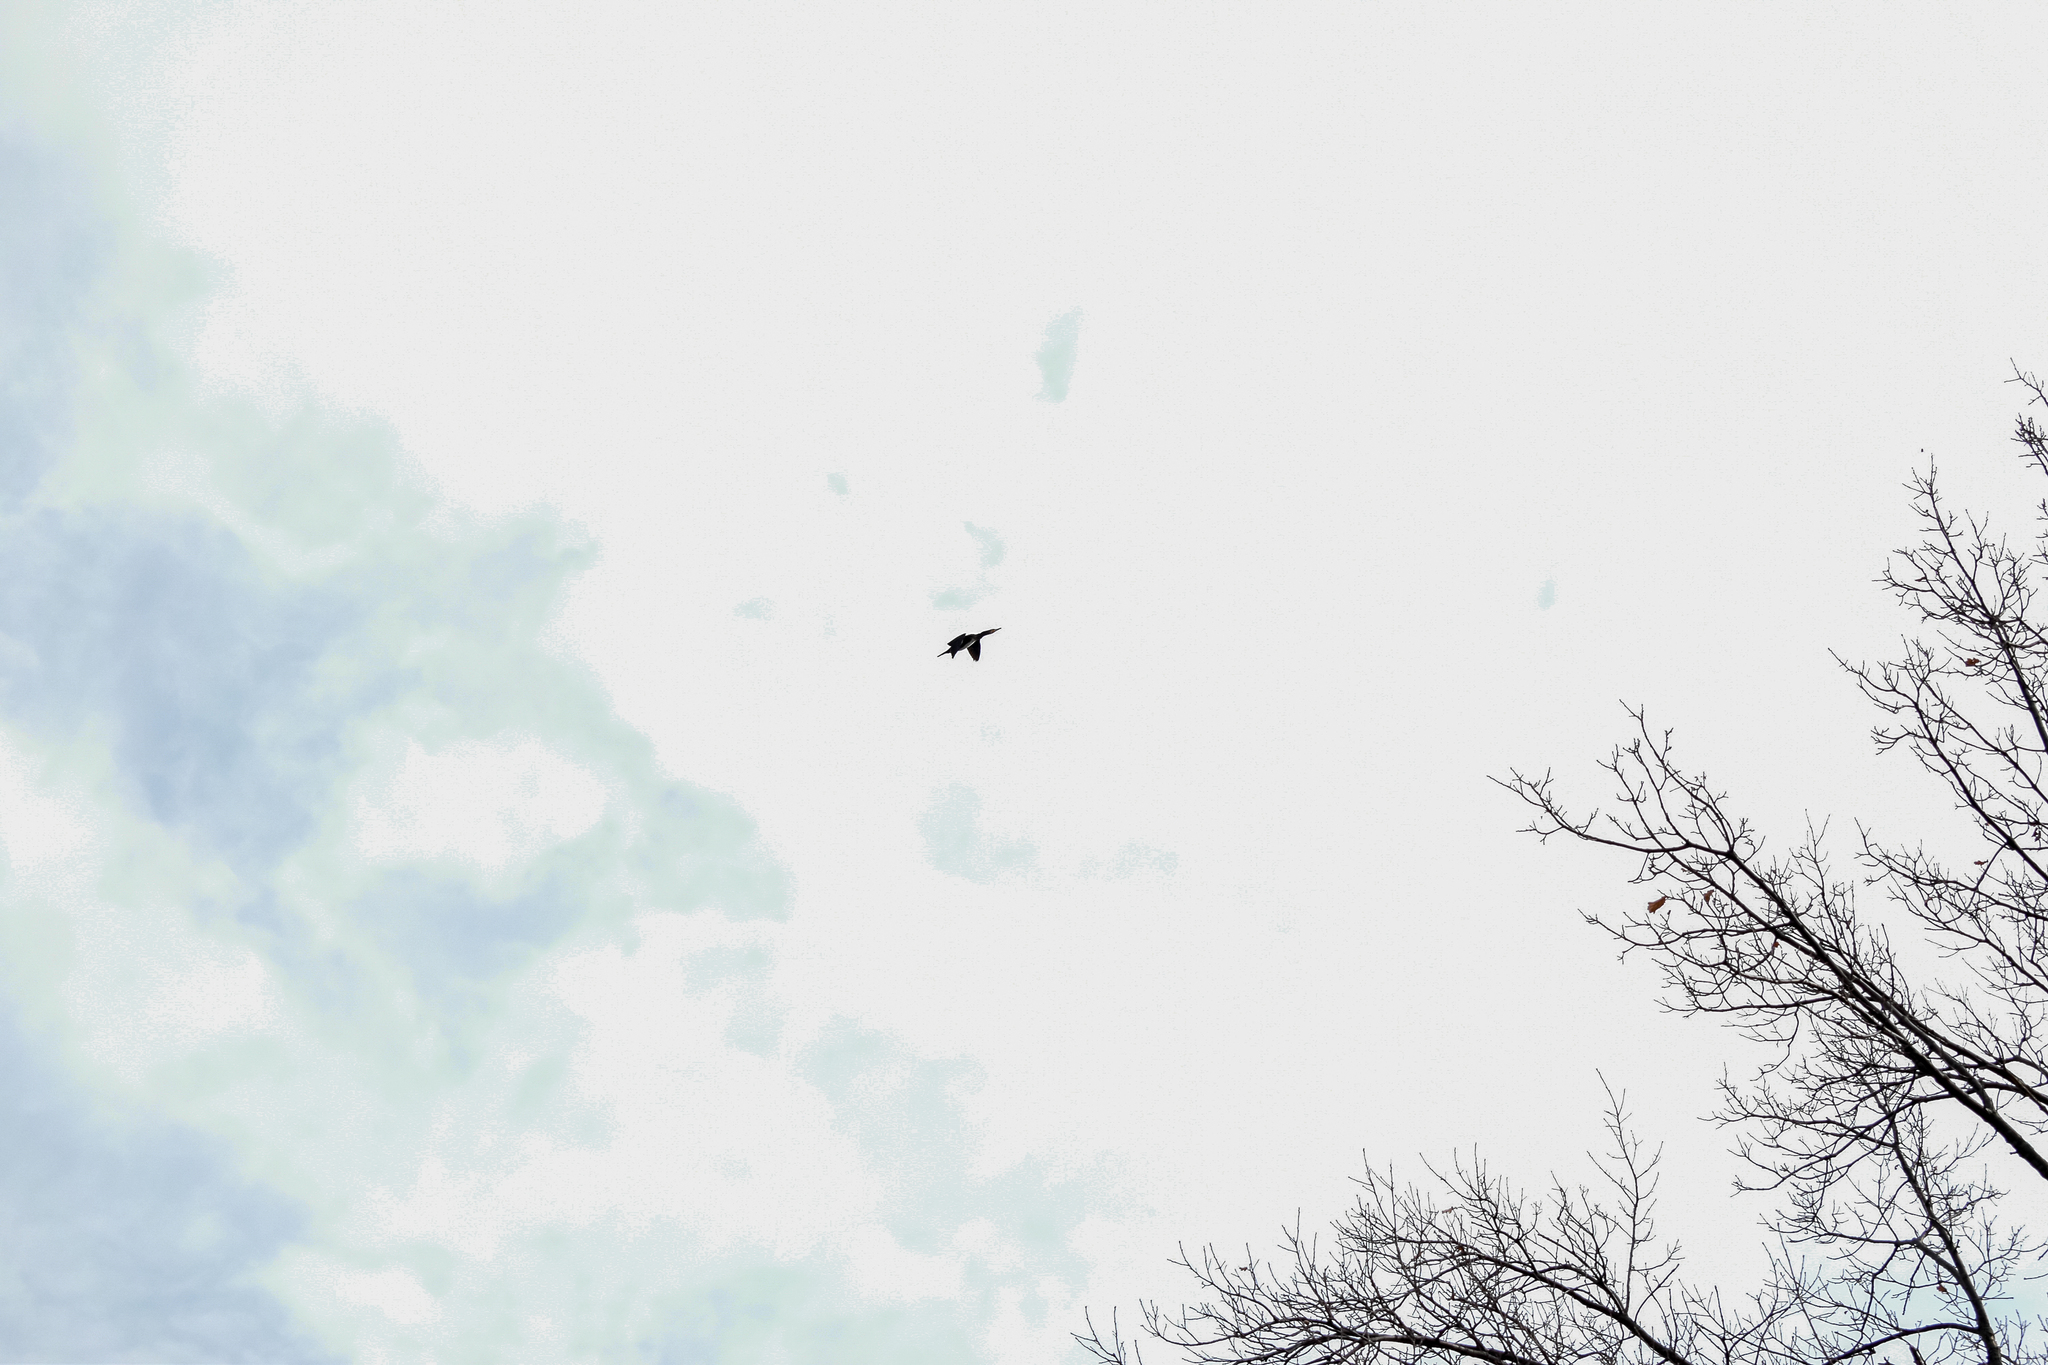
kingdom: Animalia
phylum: Chordata
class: Aves
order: Suliformes
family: Phalacrocoracidae
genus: Phalacrocorax
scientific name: Phalacrocorax carbo
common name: Great cormorant
